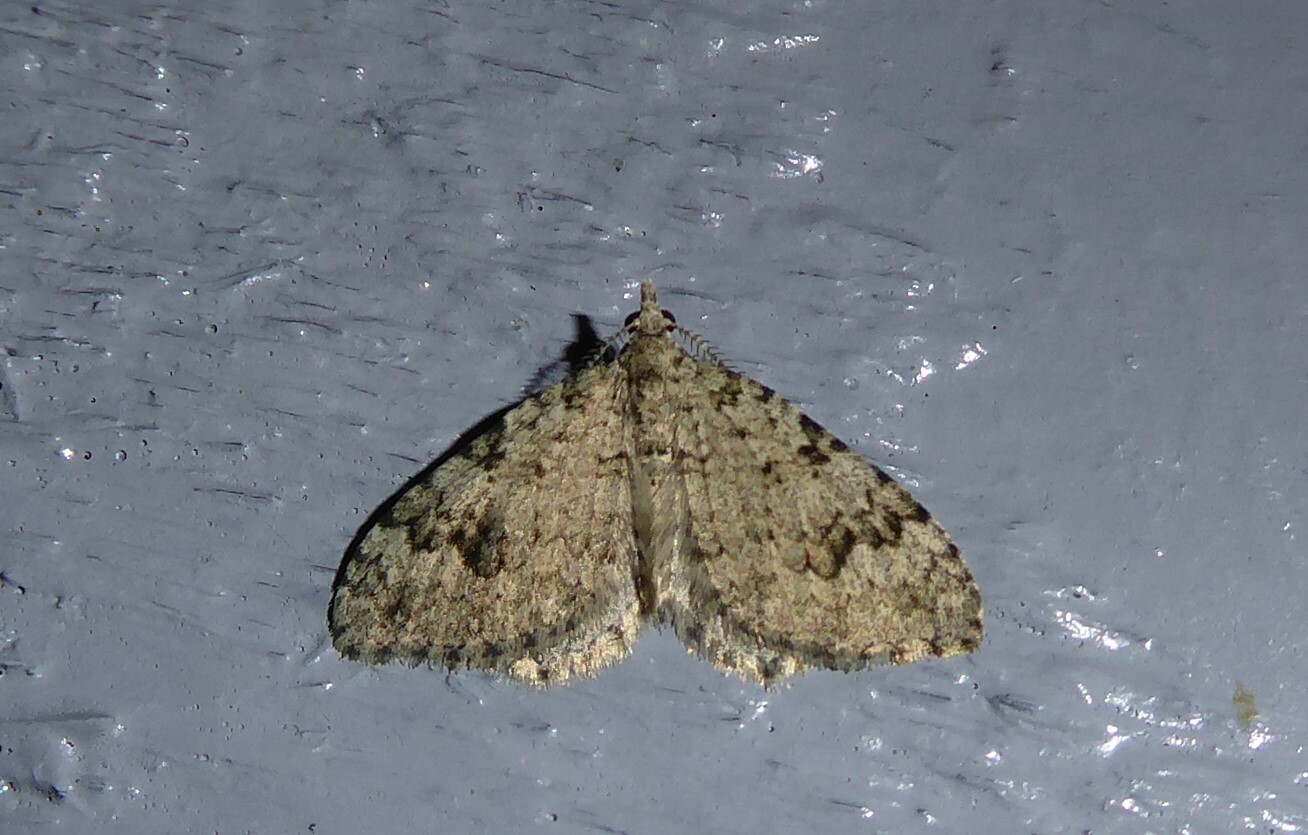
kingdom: Animalia
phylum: Arthropoda
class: Insecta
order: Lepidoptera
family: Geometridae
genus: Helastia
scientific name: Helastia cinerearia
